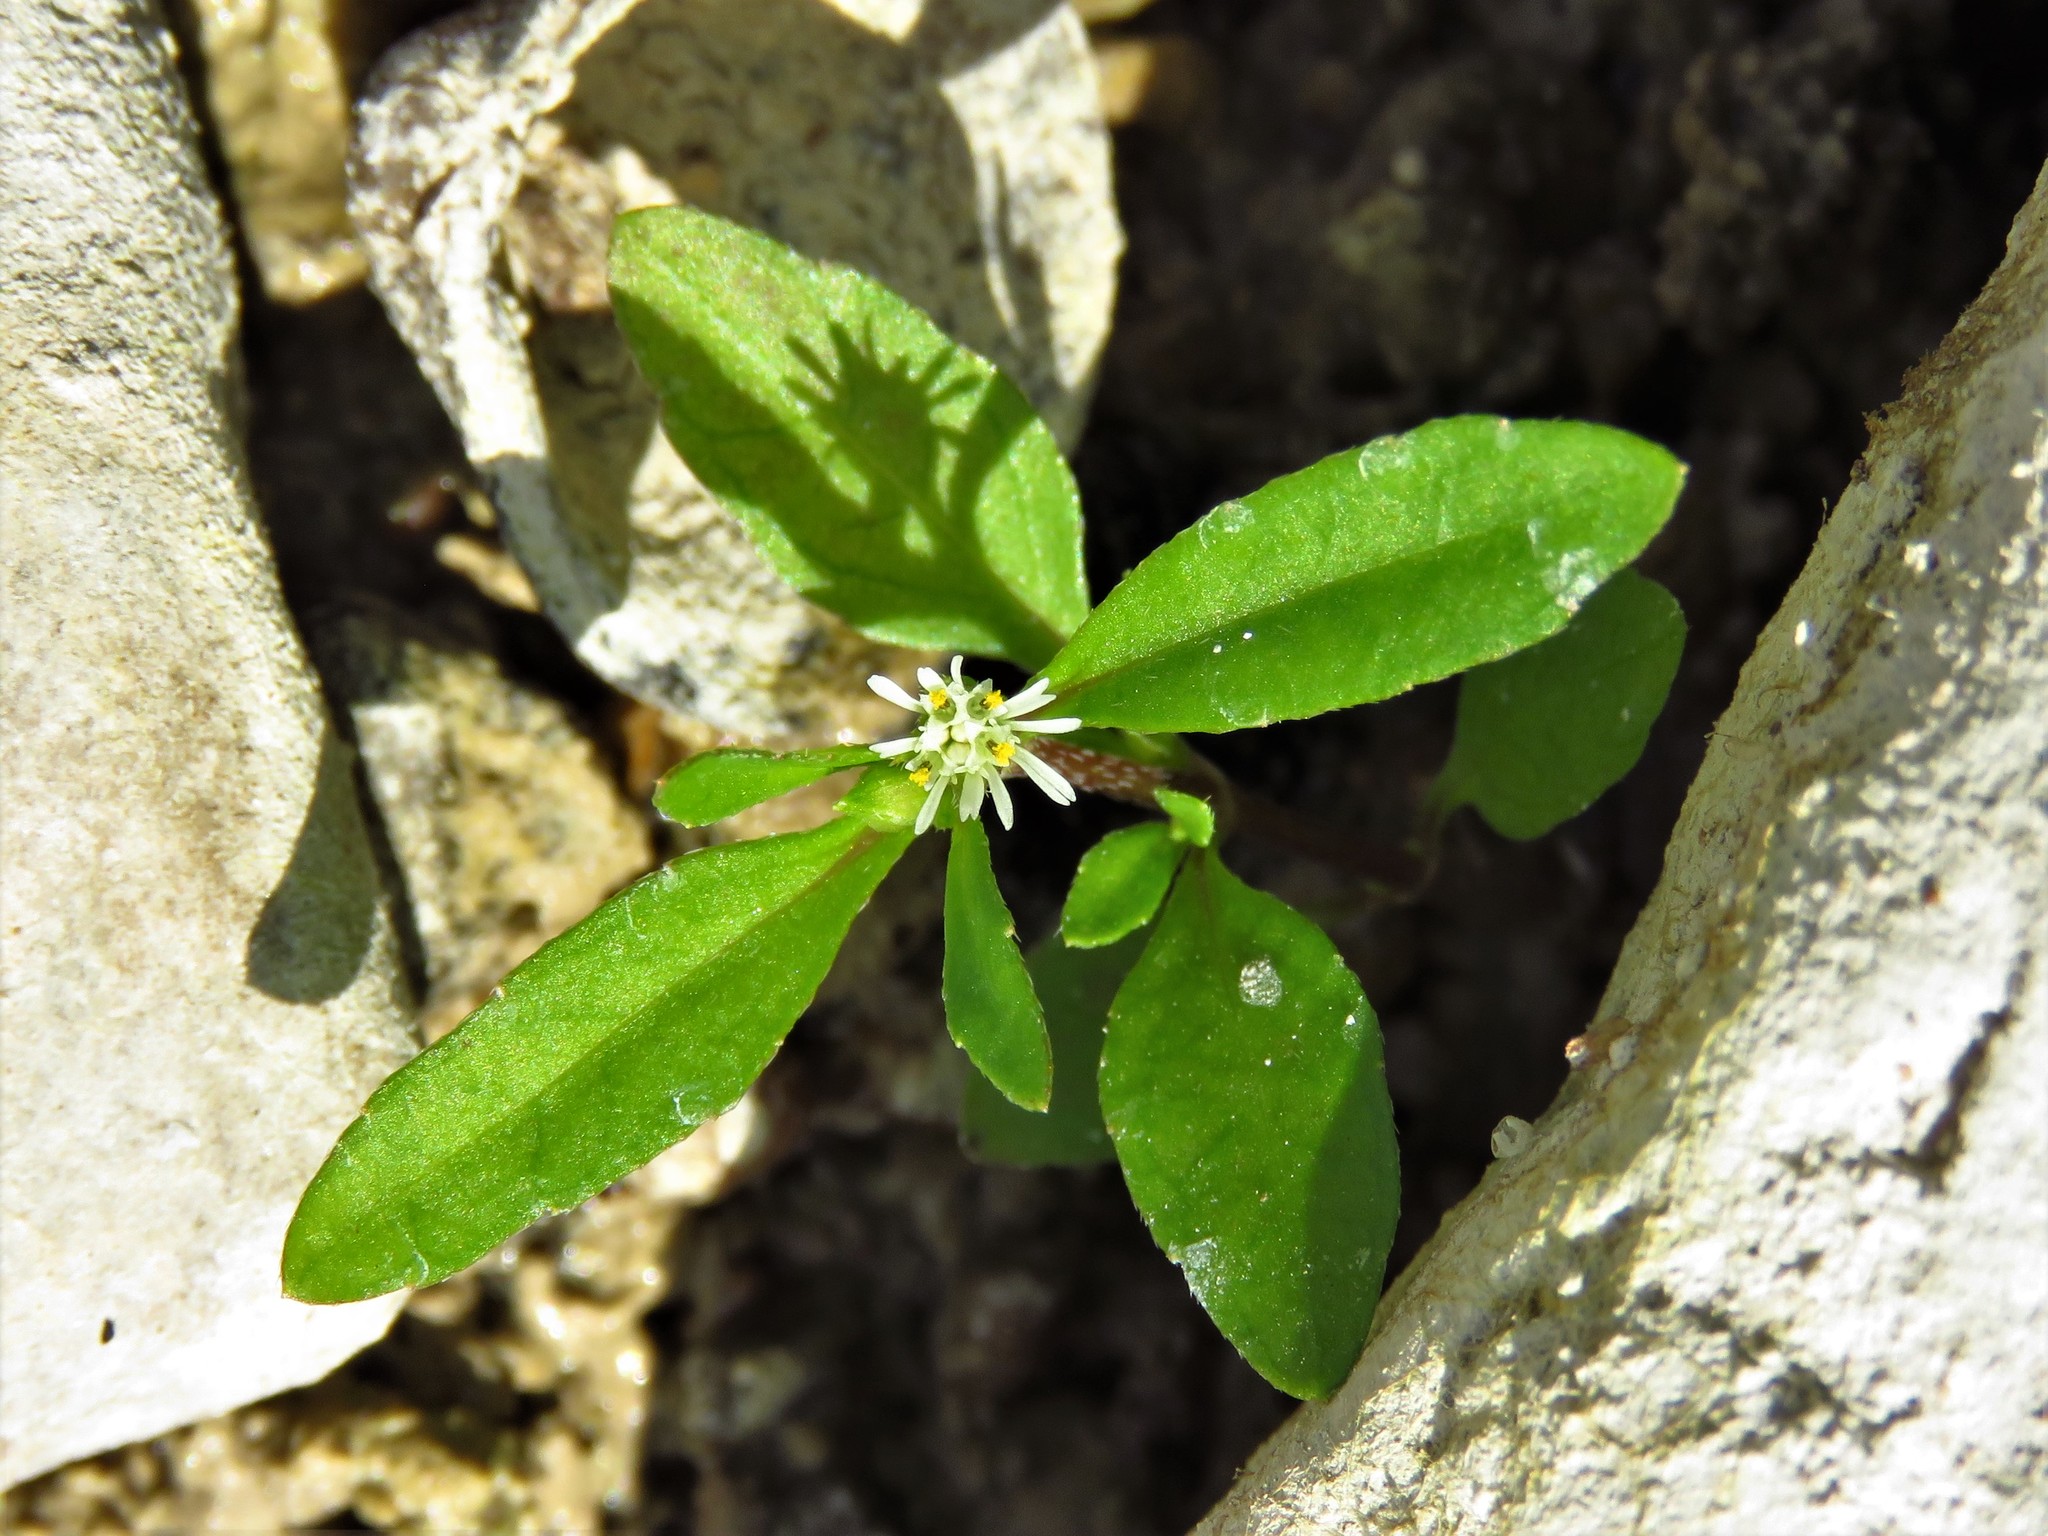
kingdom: Plantae
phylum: Tracheophyta
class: Magnoliopsida
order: Asterales
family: Asteraceae
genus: Eclipta
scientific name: Eclipta prostrata
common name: False daisy
